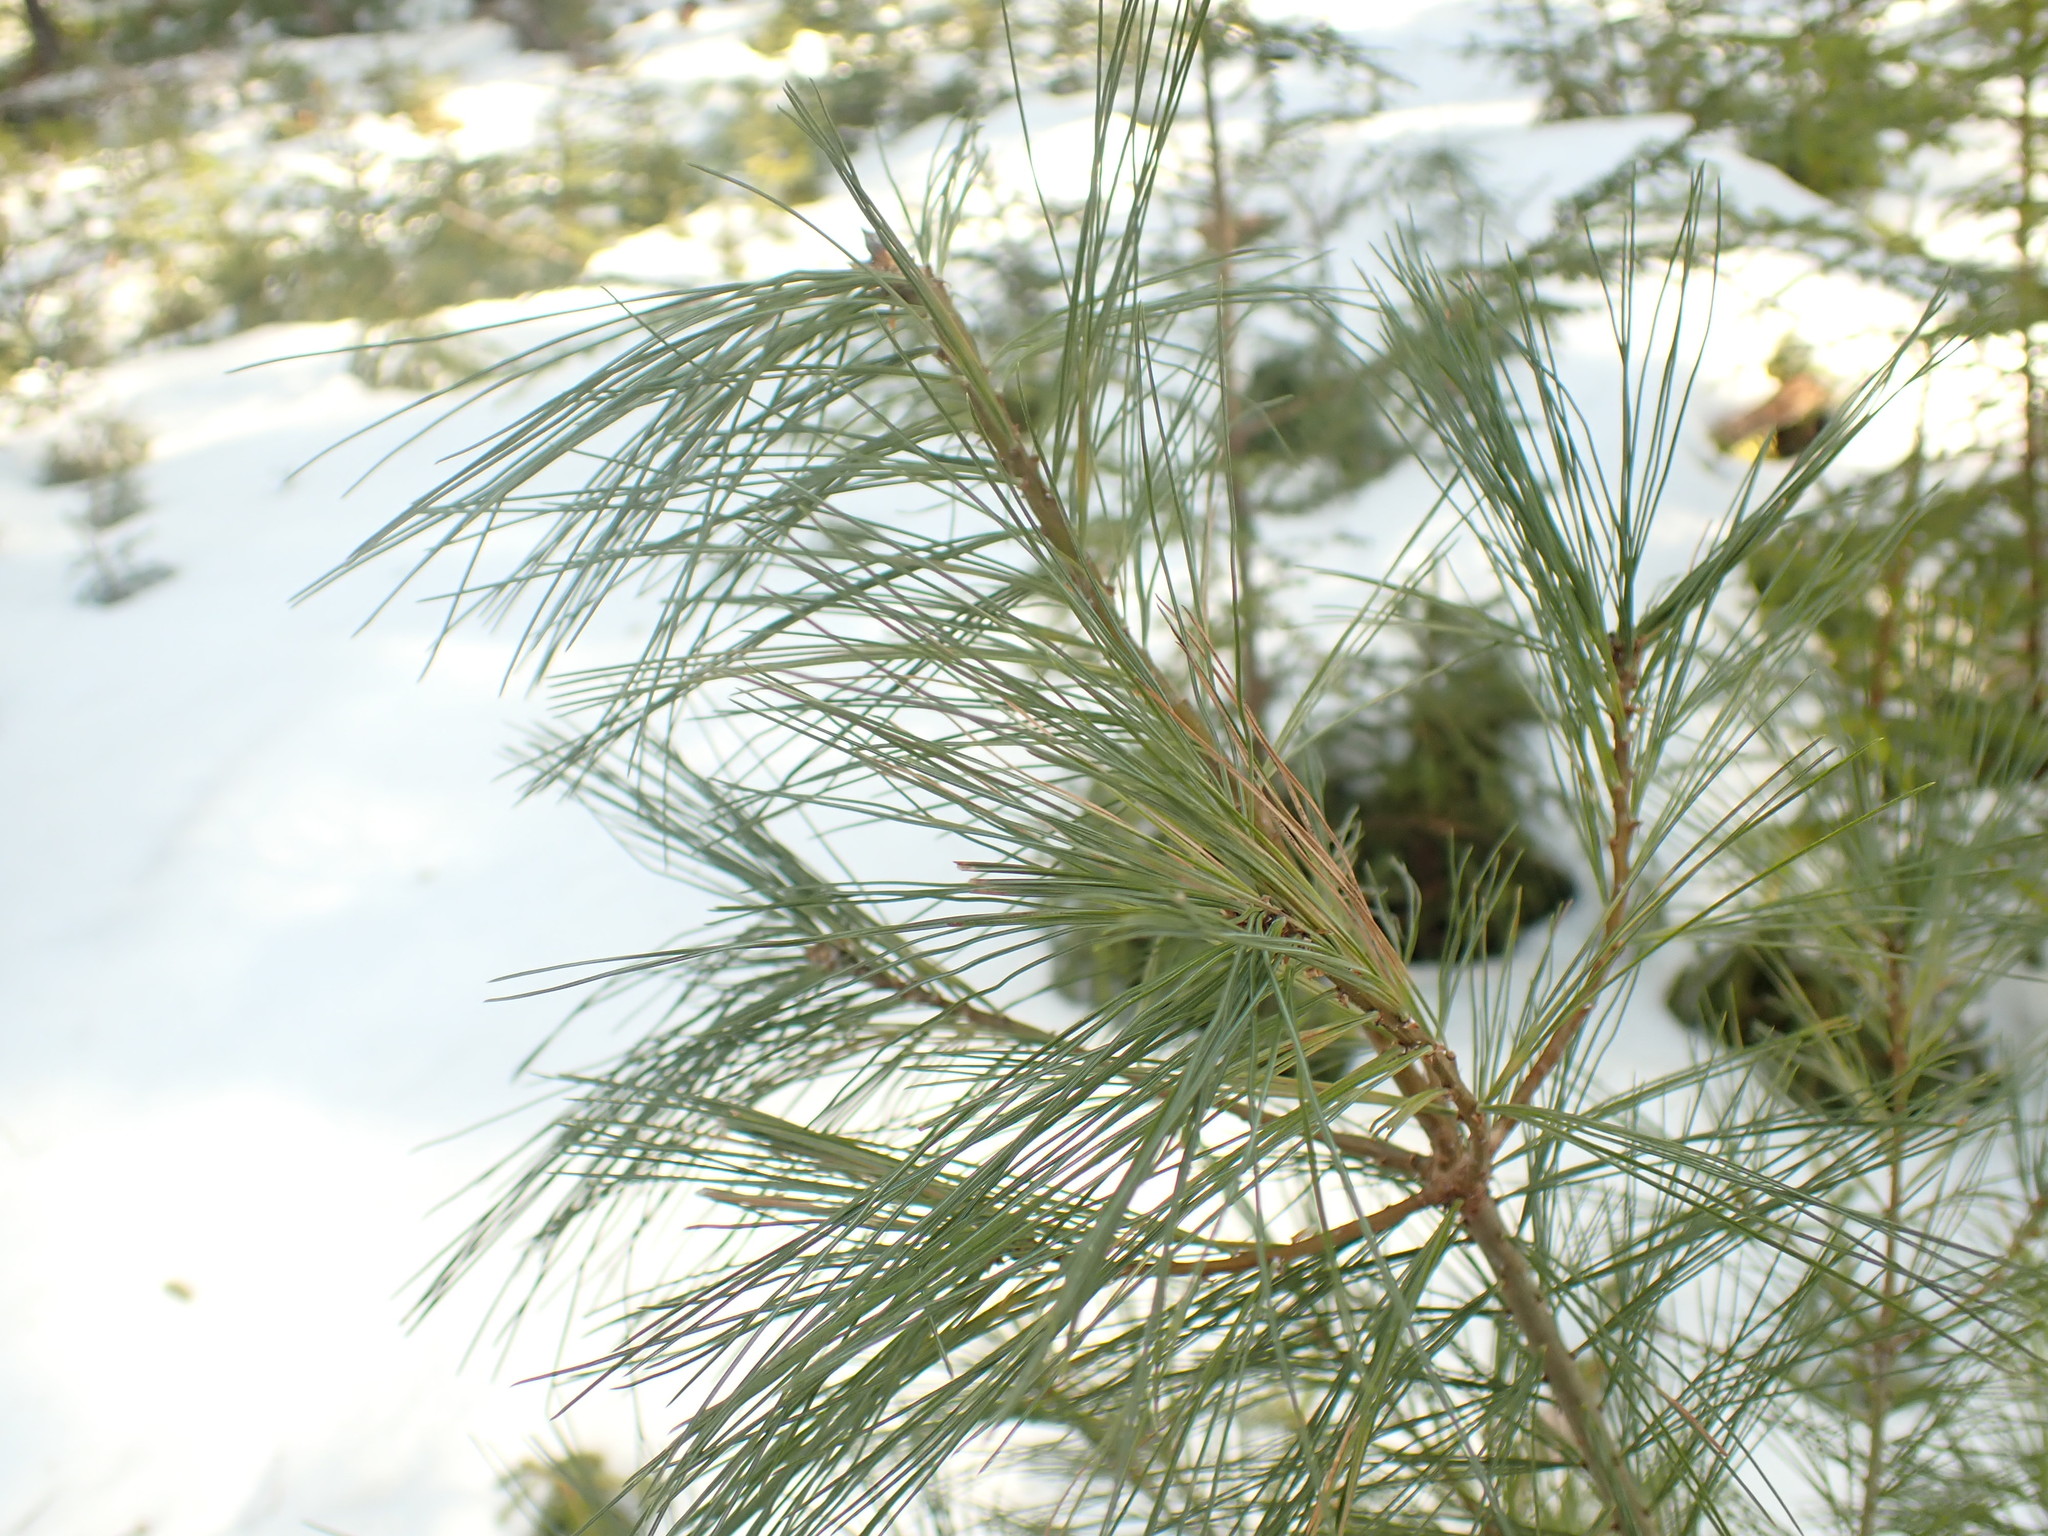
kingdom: Plantae
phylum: Tracheophyta
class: Pinopsida
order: Pinales
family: Pinaceae
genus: Pinus
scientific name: Pinus strobus
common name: Weymouth pine
